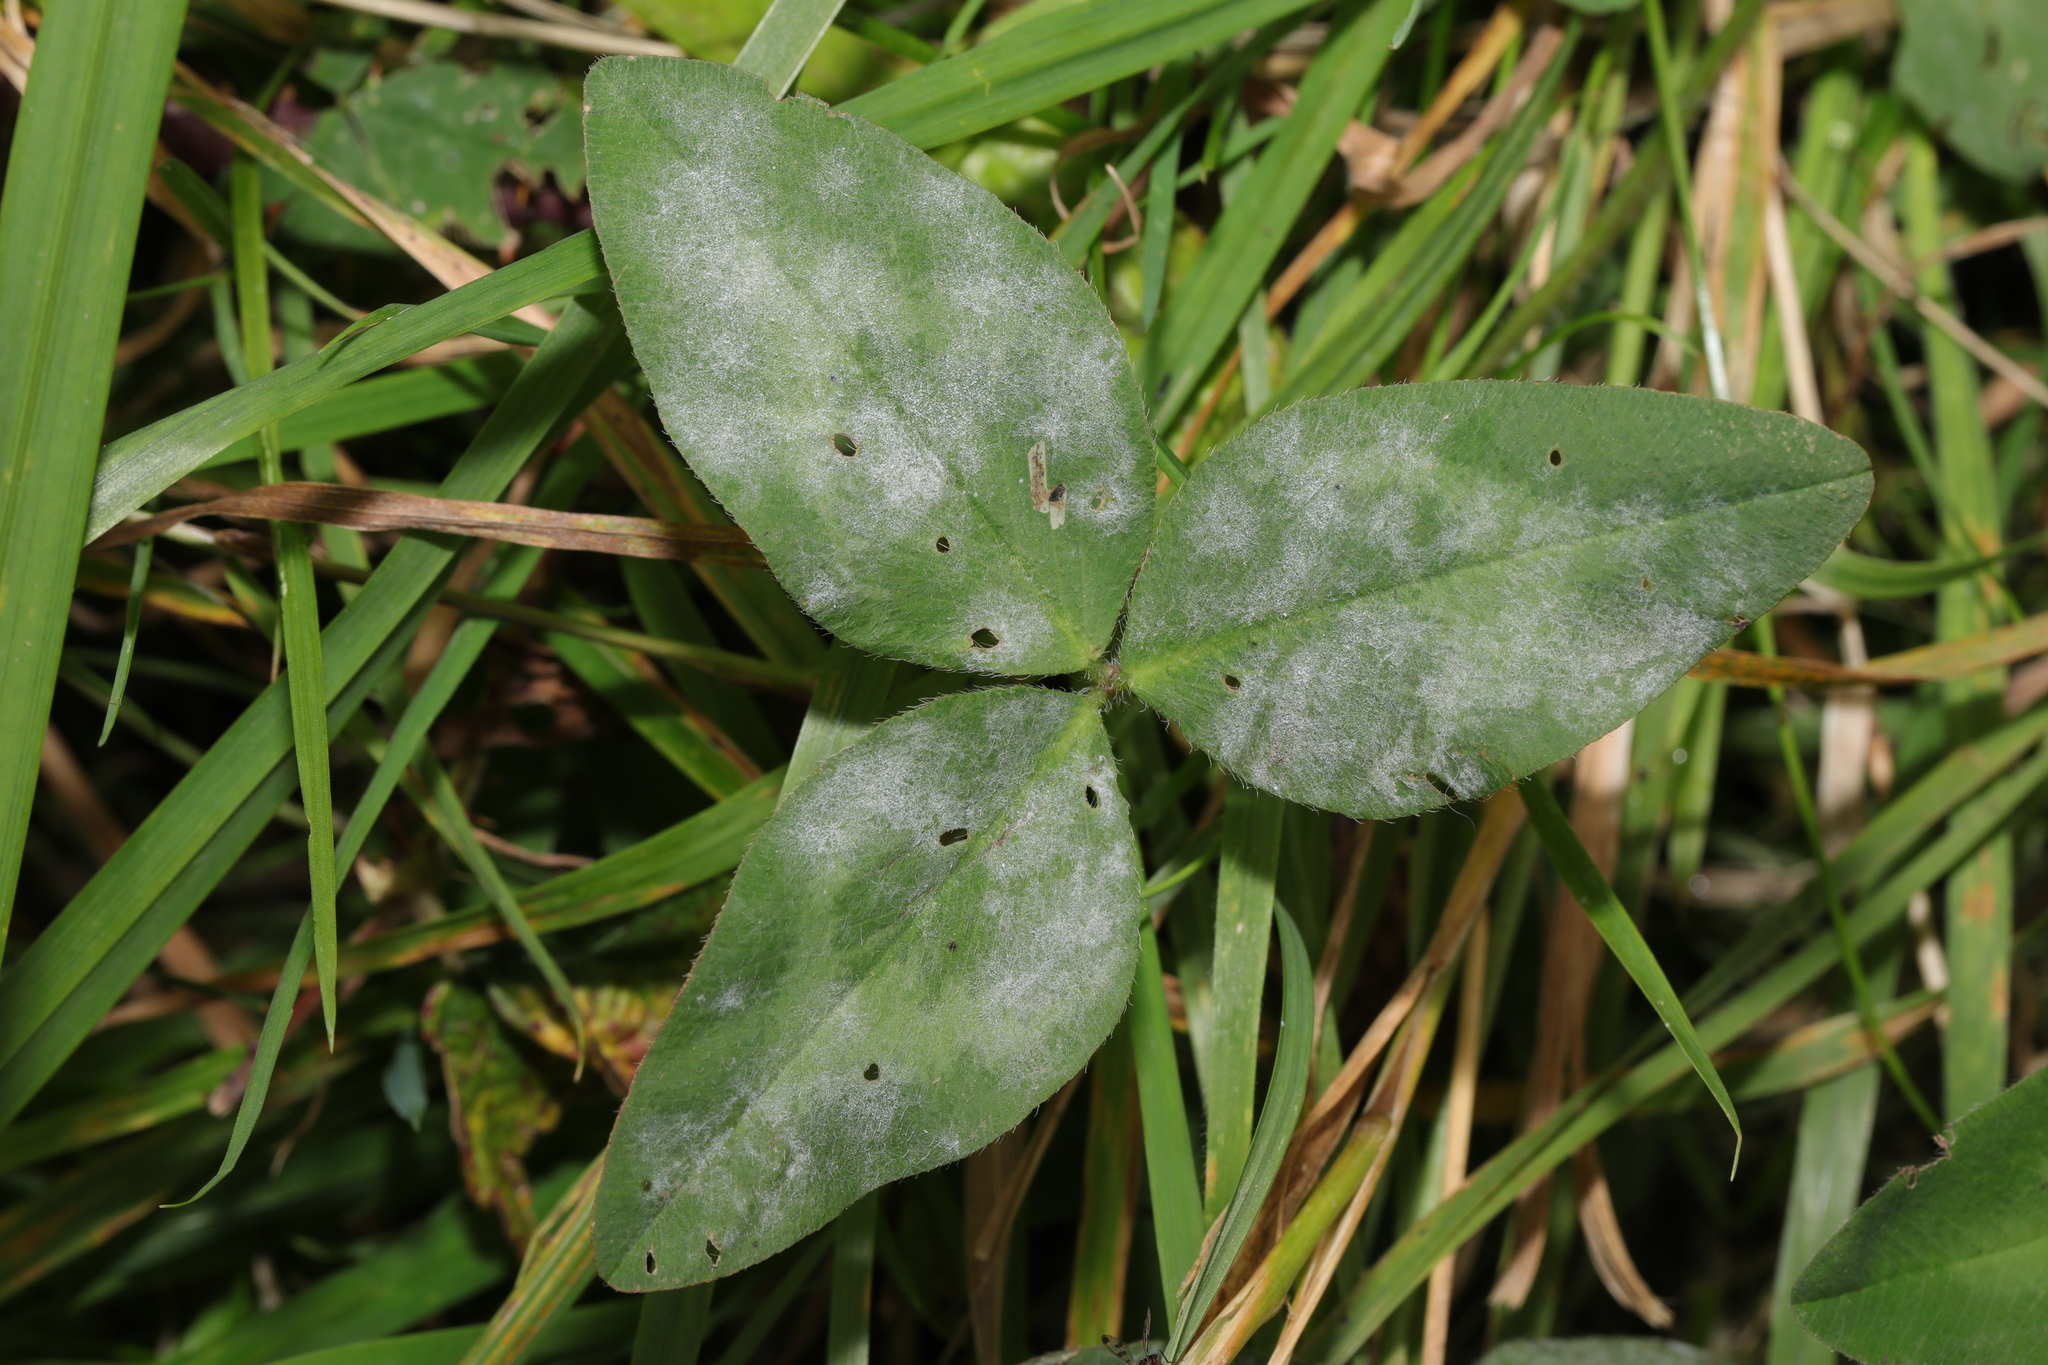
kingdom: Plantae
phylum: Tracheophyta
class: Magnoliopsida
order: Fabales
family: Fabaceae
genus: Trifolium
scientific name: Trifolium pratense
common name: Red clover
